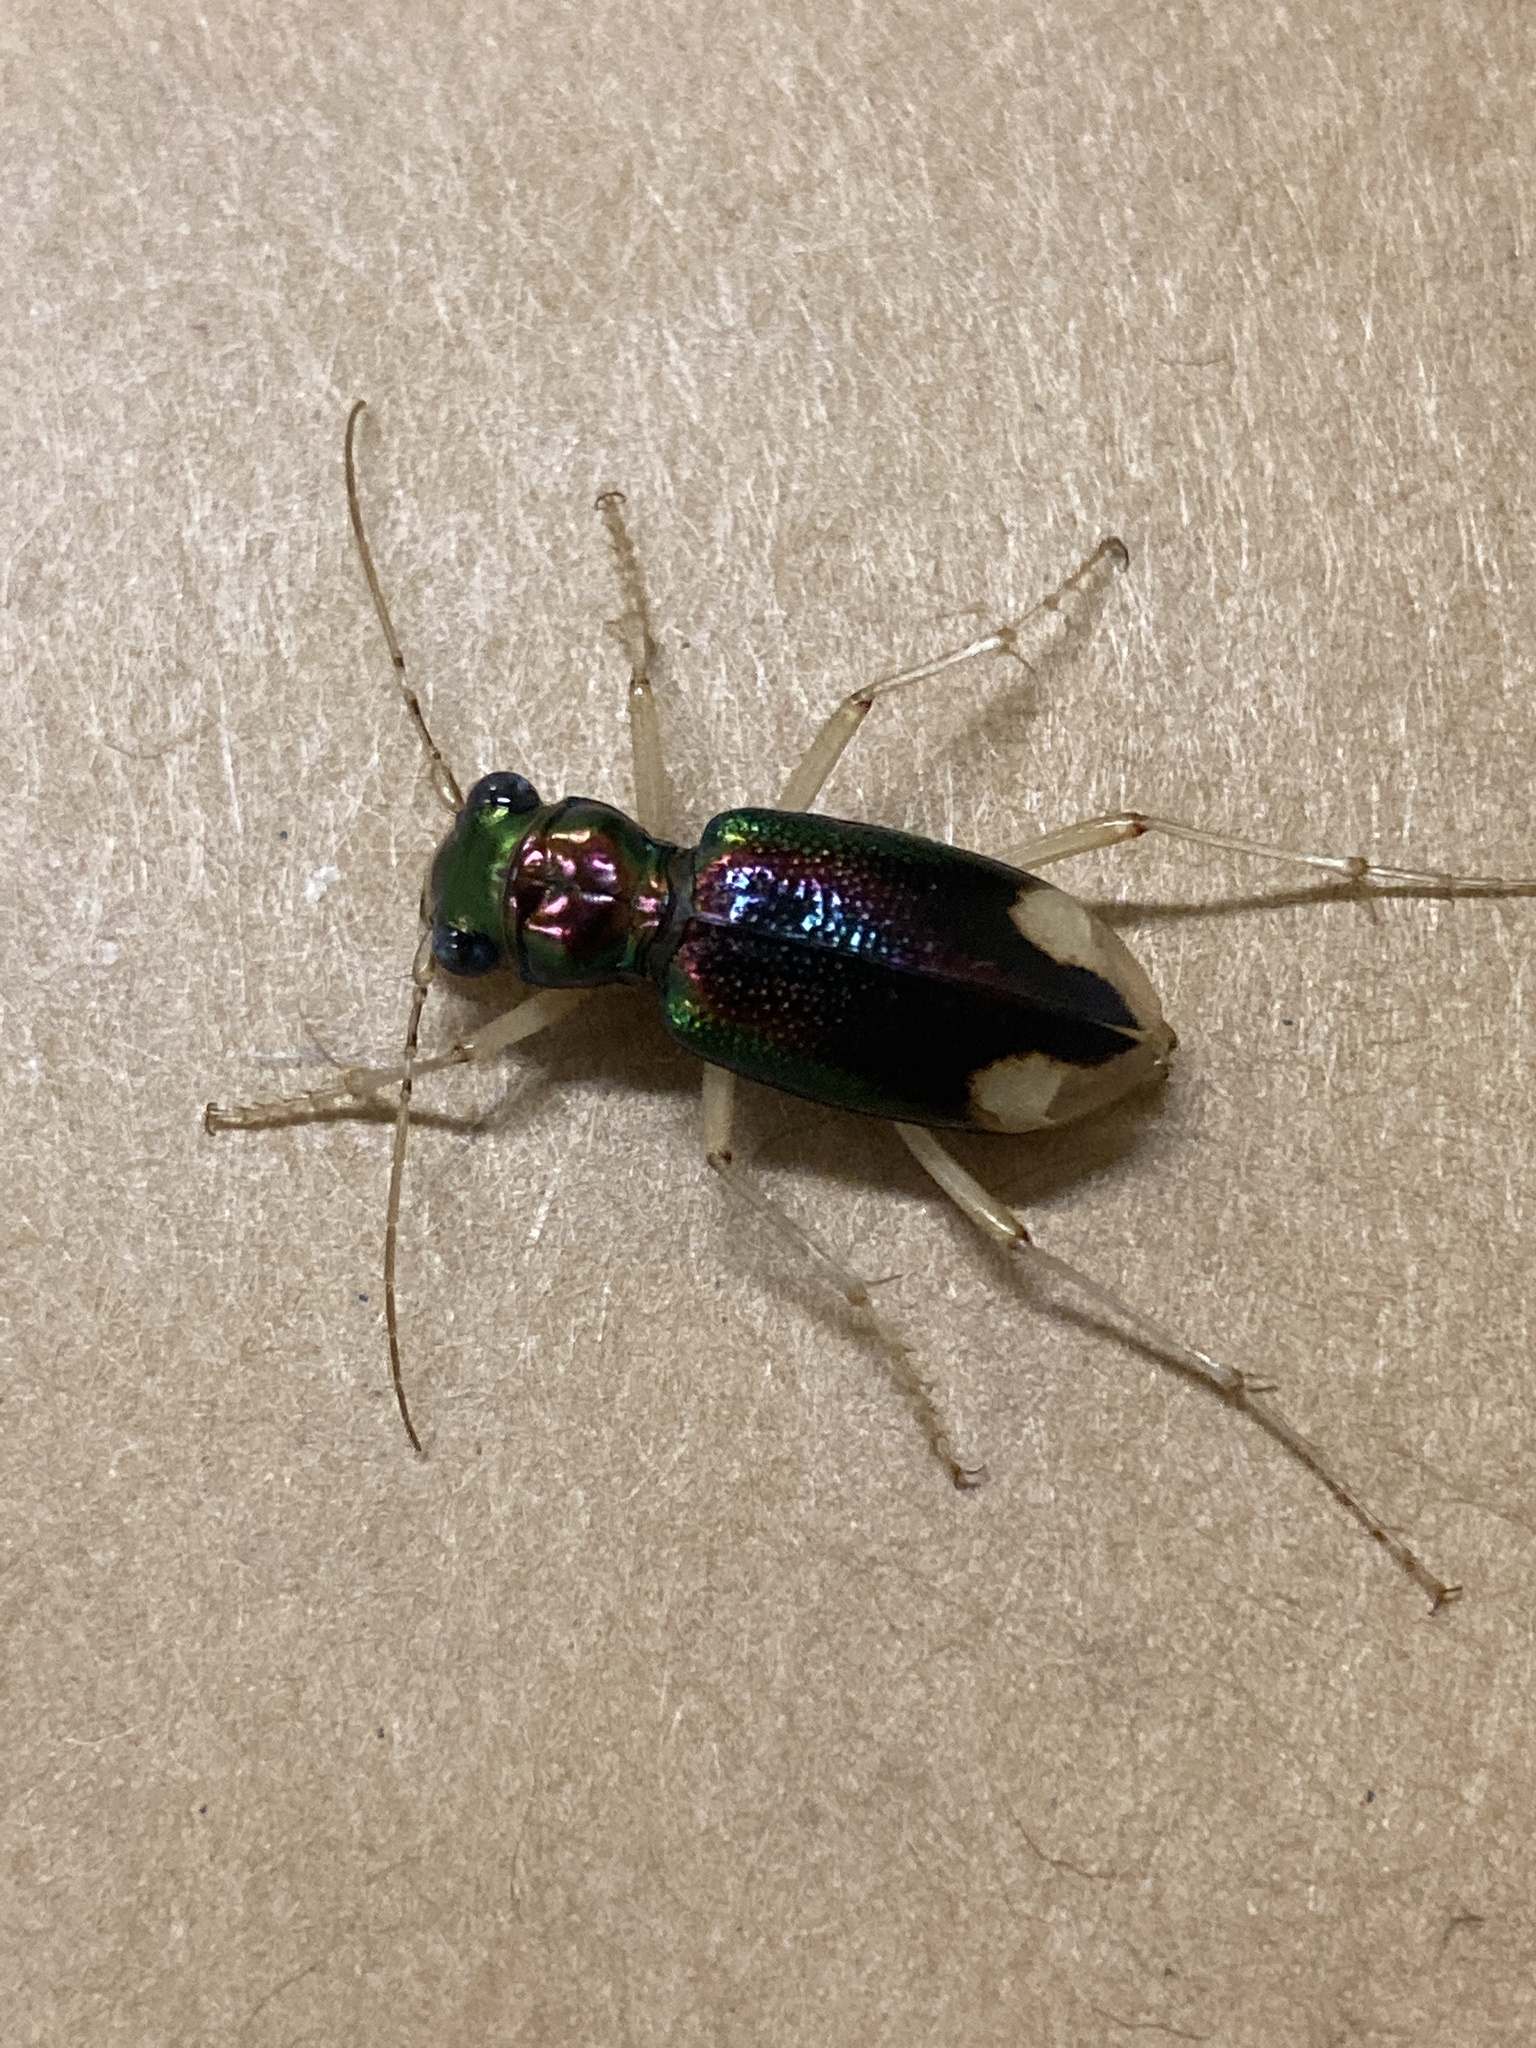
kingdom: Animalia
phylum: Arthropoda
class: Insecta
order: Coleoptera
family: Carabidae
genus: Tetracha
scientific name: Tetracha carolina
